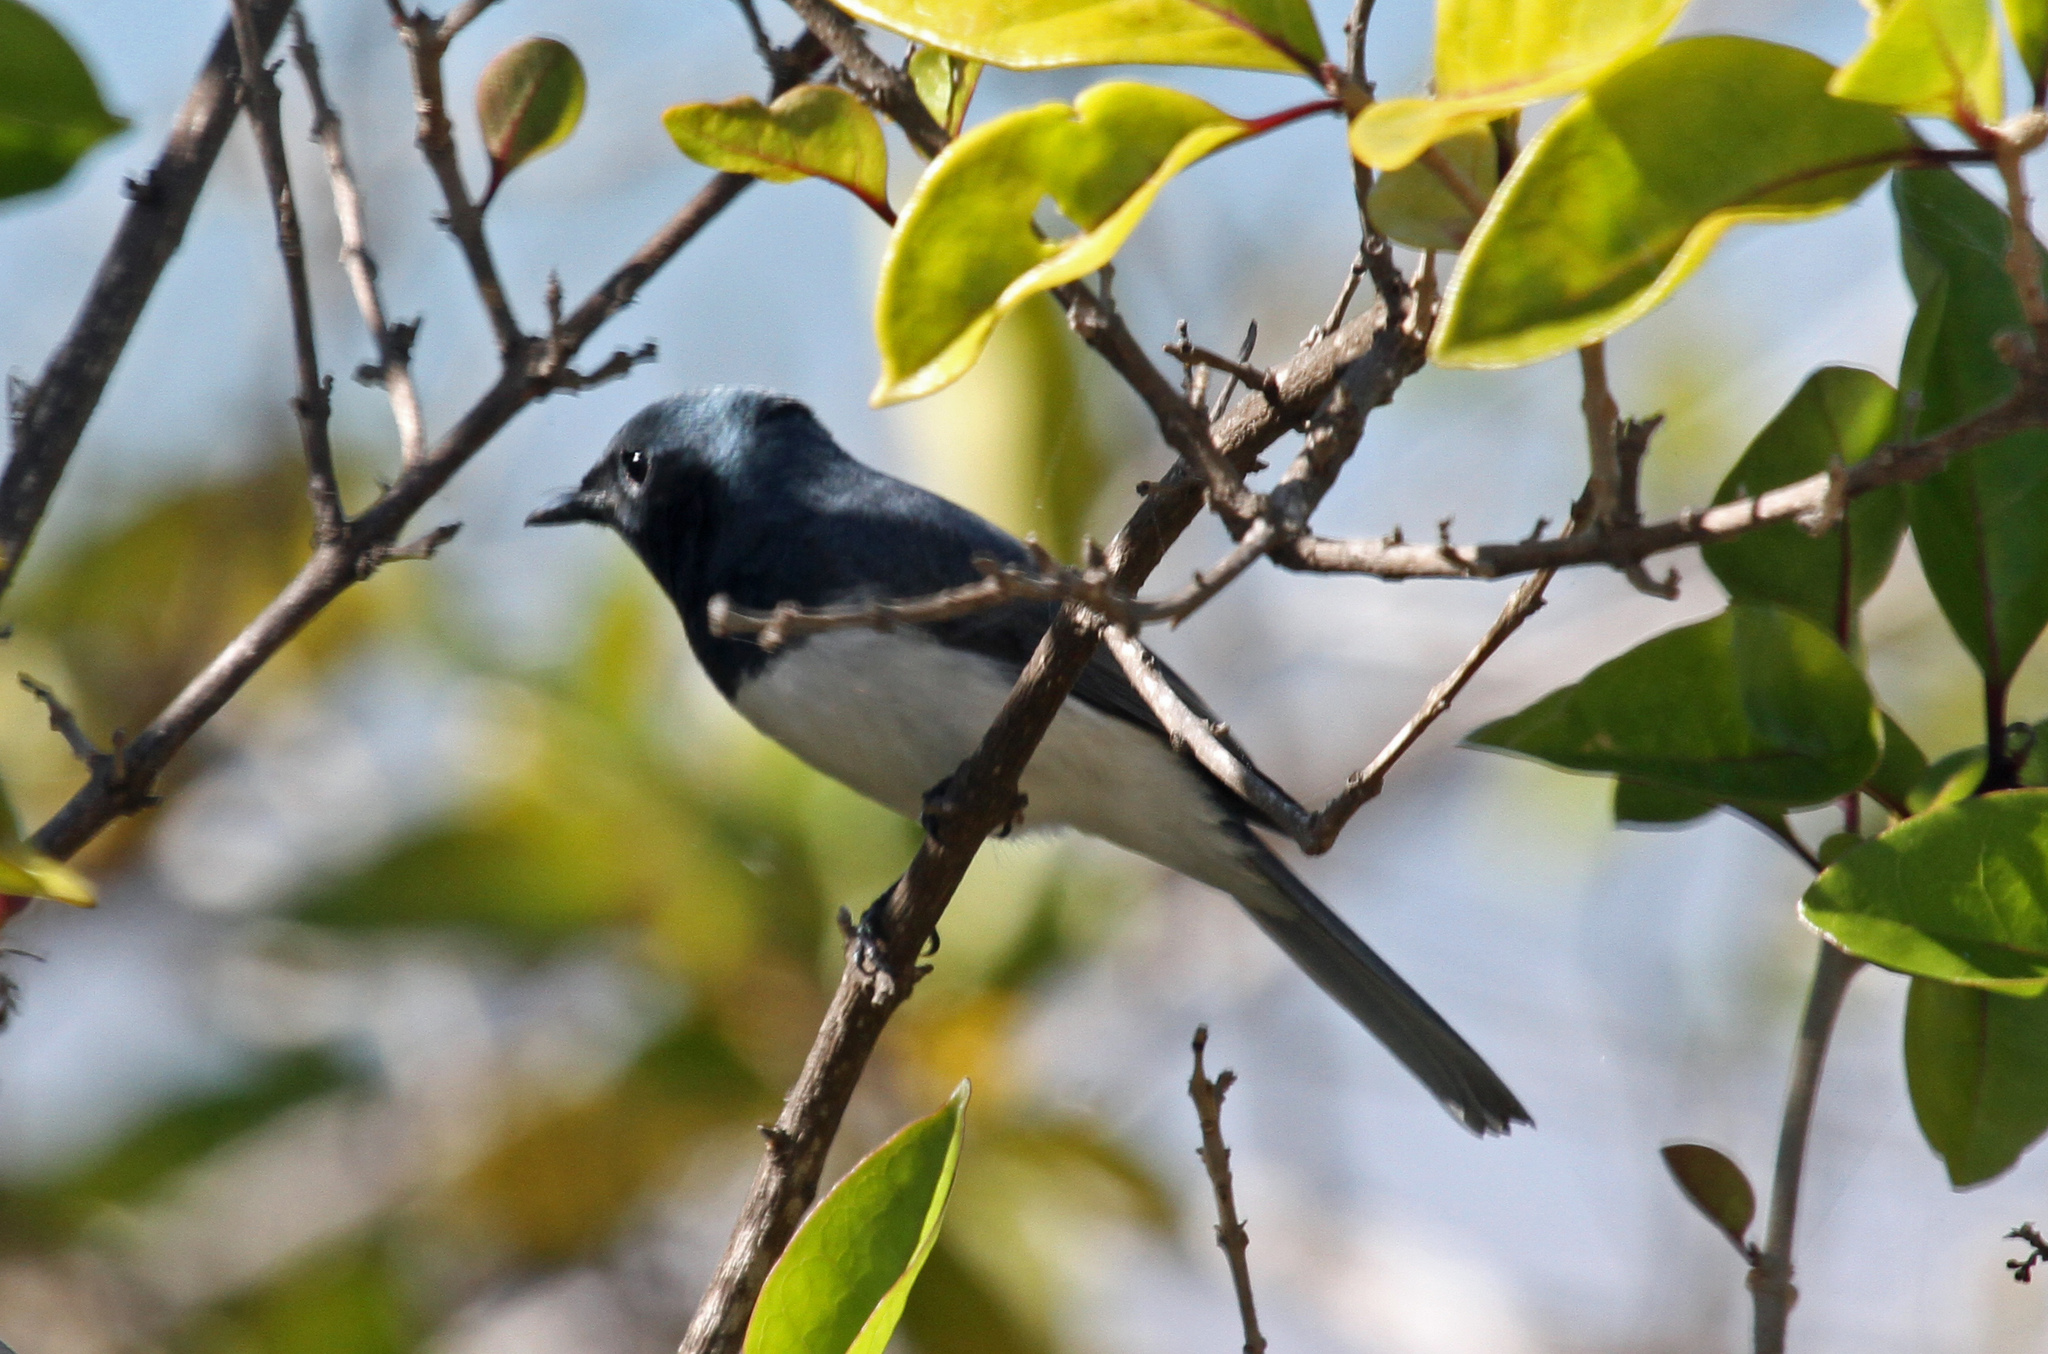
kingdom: Animalia
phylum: Chordata
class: Aves
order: Passeriformes
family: Monarchidae
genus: Myiagra
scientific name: Myiagra rubecula
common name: Leaden flycatcher
